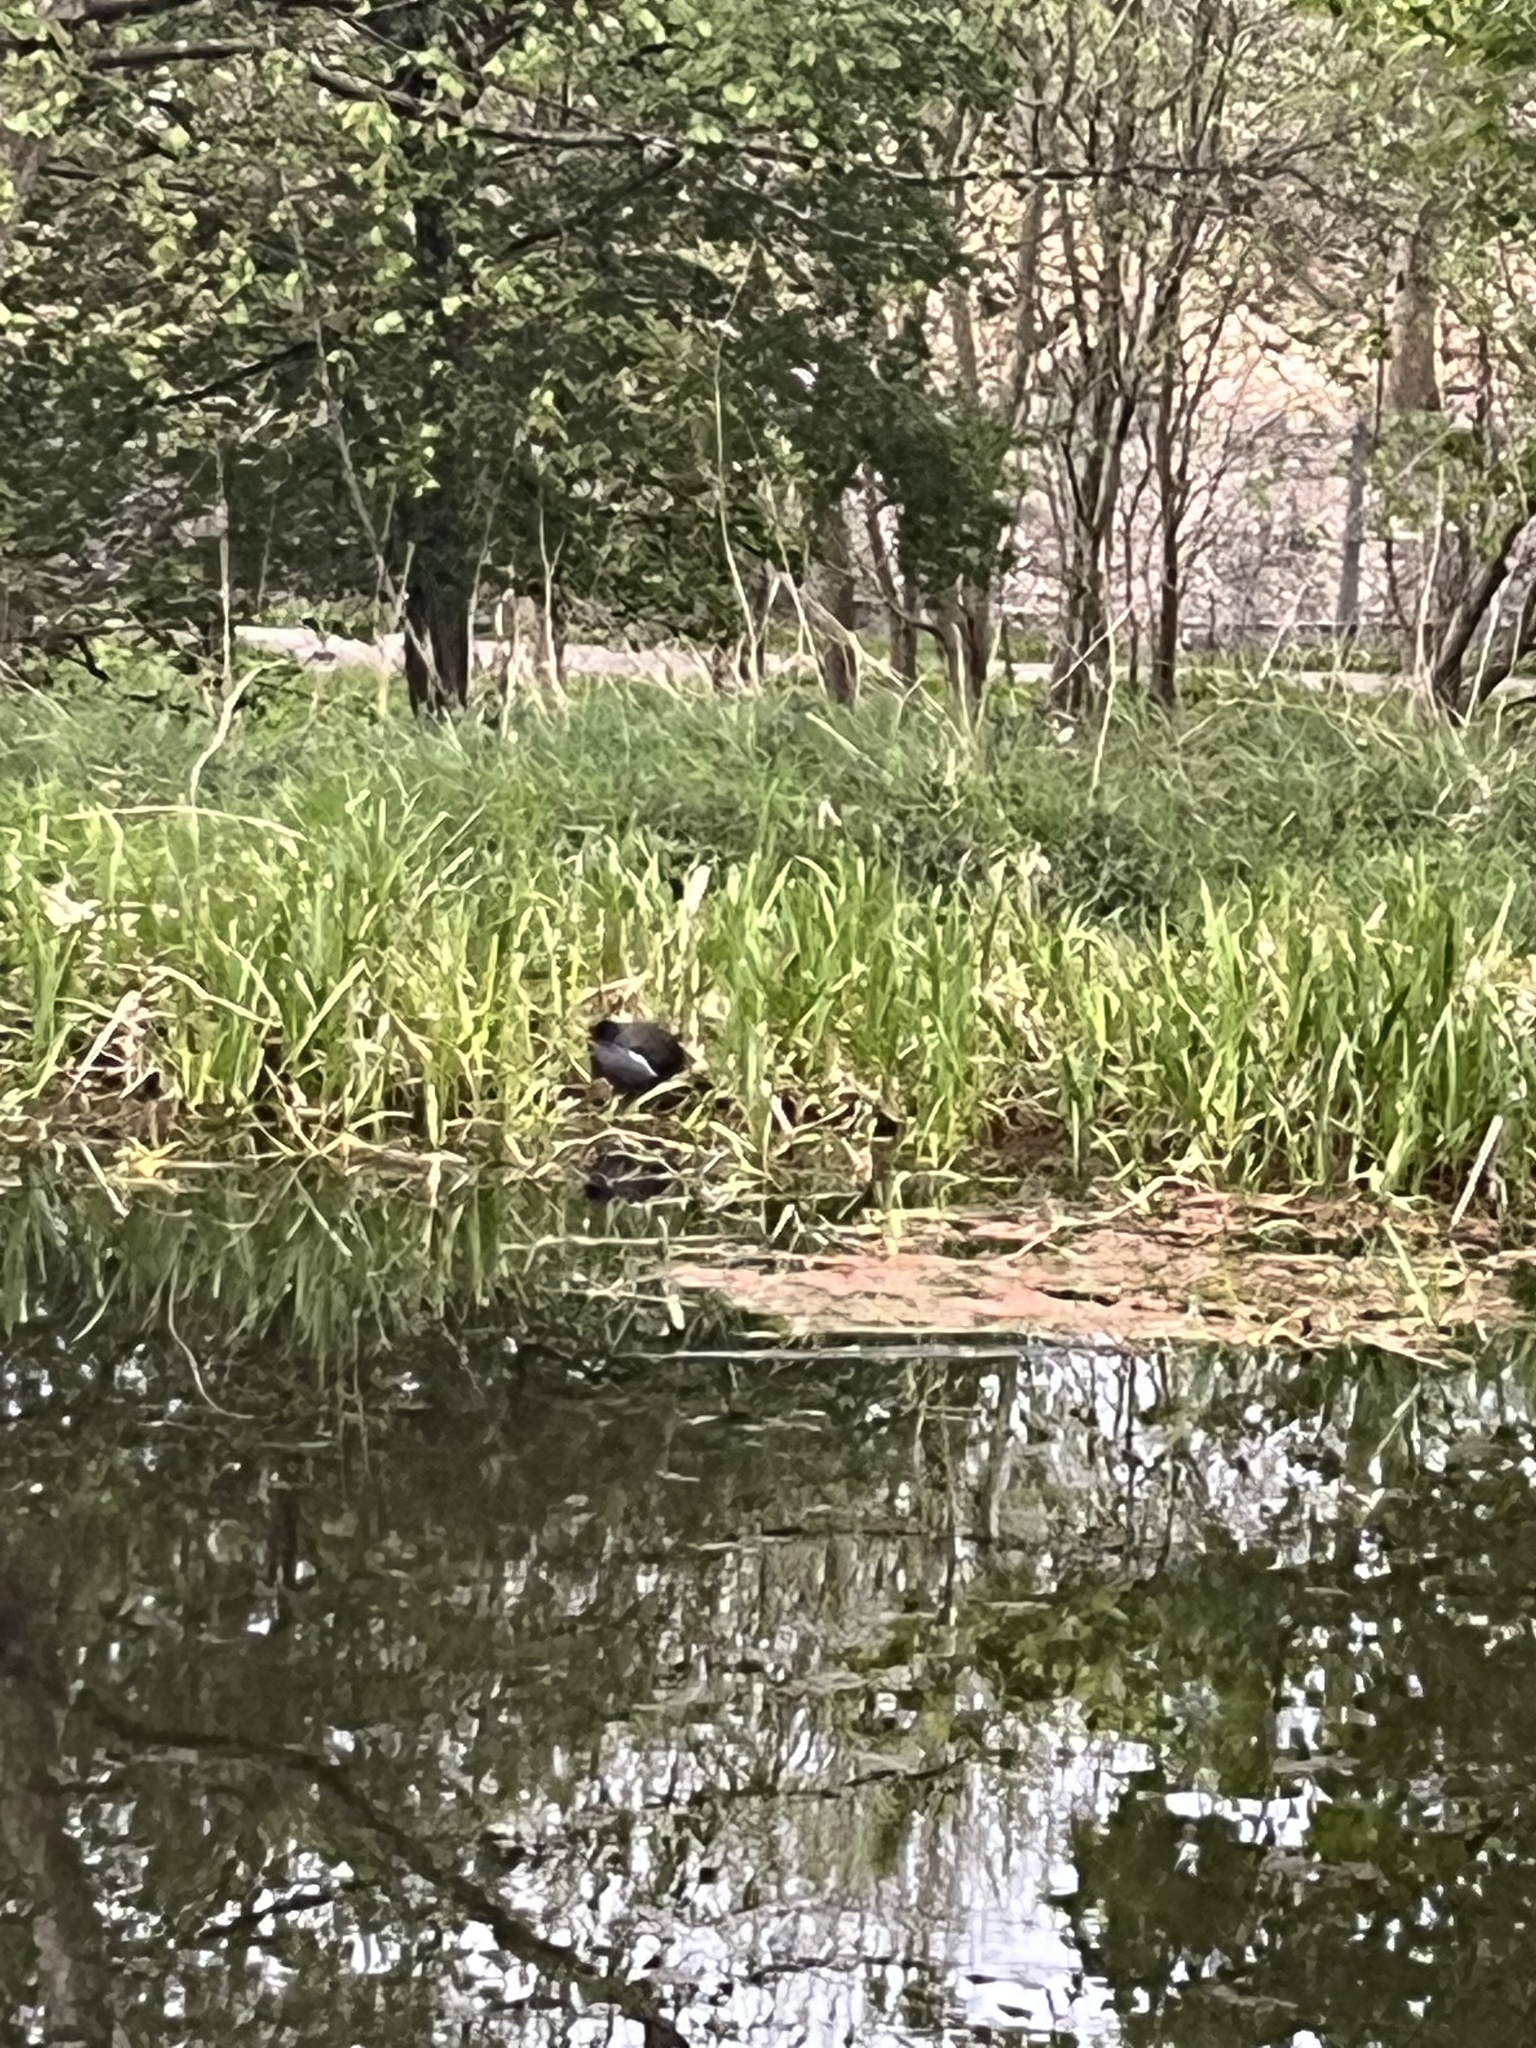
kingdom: Animalia
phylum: Chordata
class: Aves
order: Gruiformes
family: Rallidae
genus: Gallinula
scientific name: Gallinula chloropus
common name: Common moorhen
